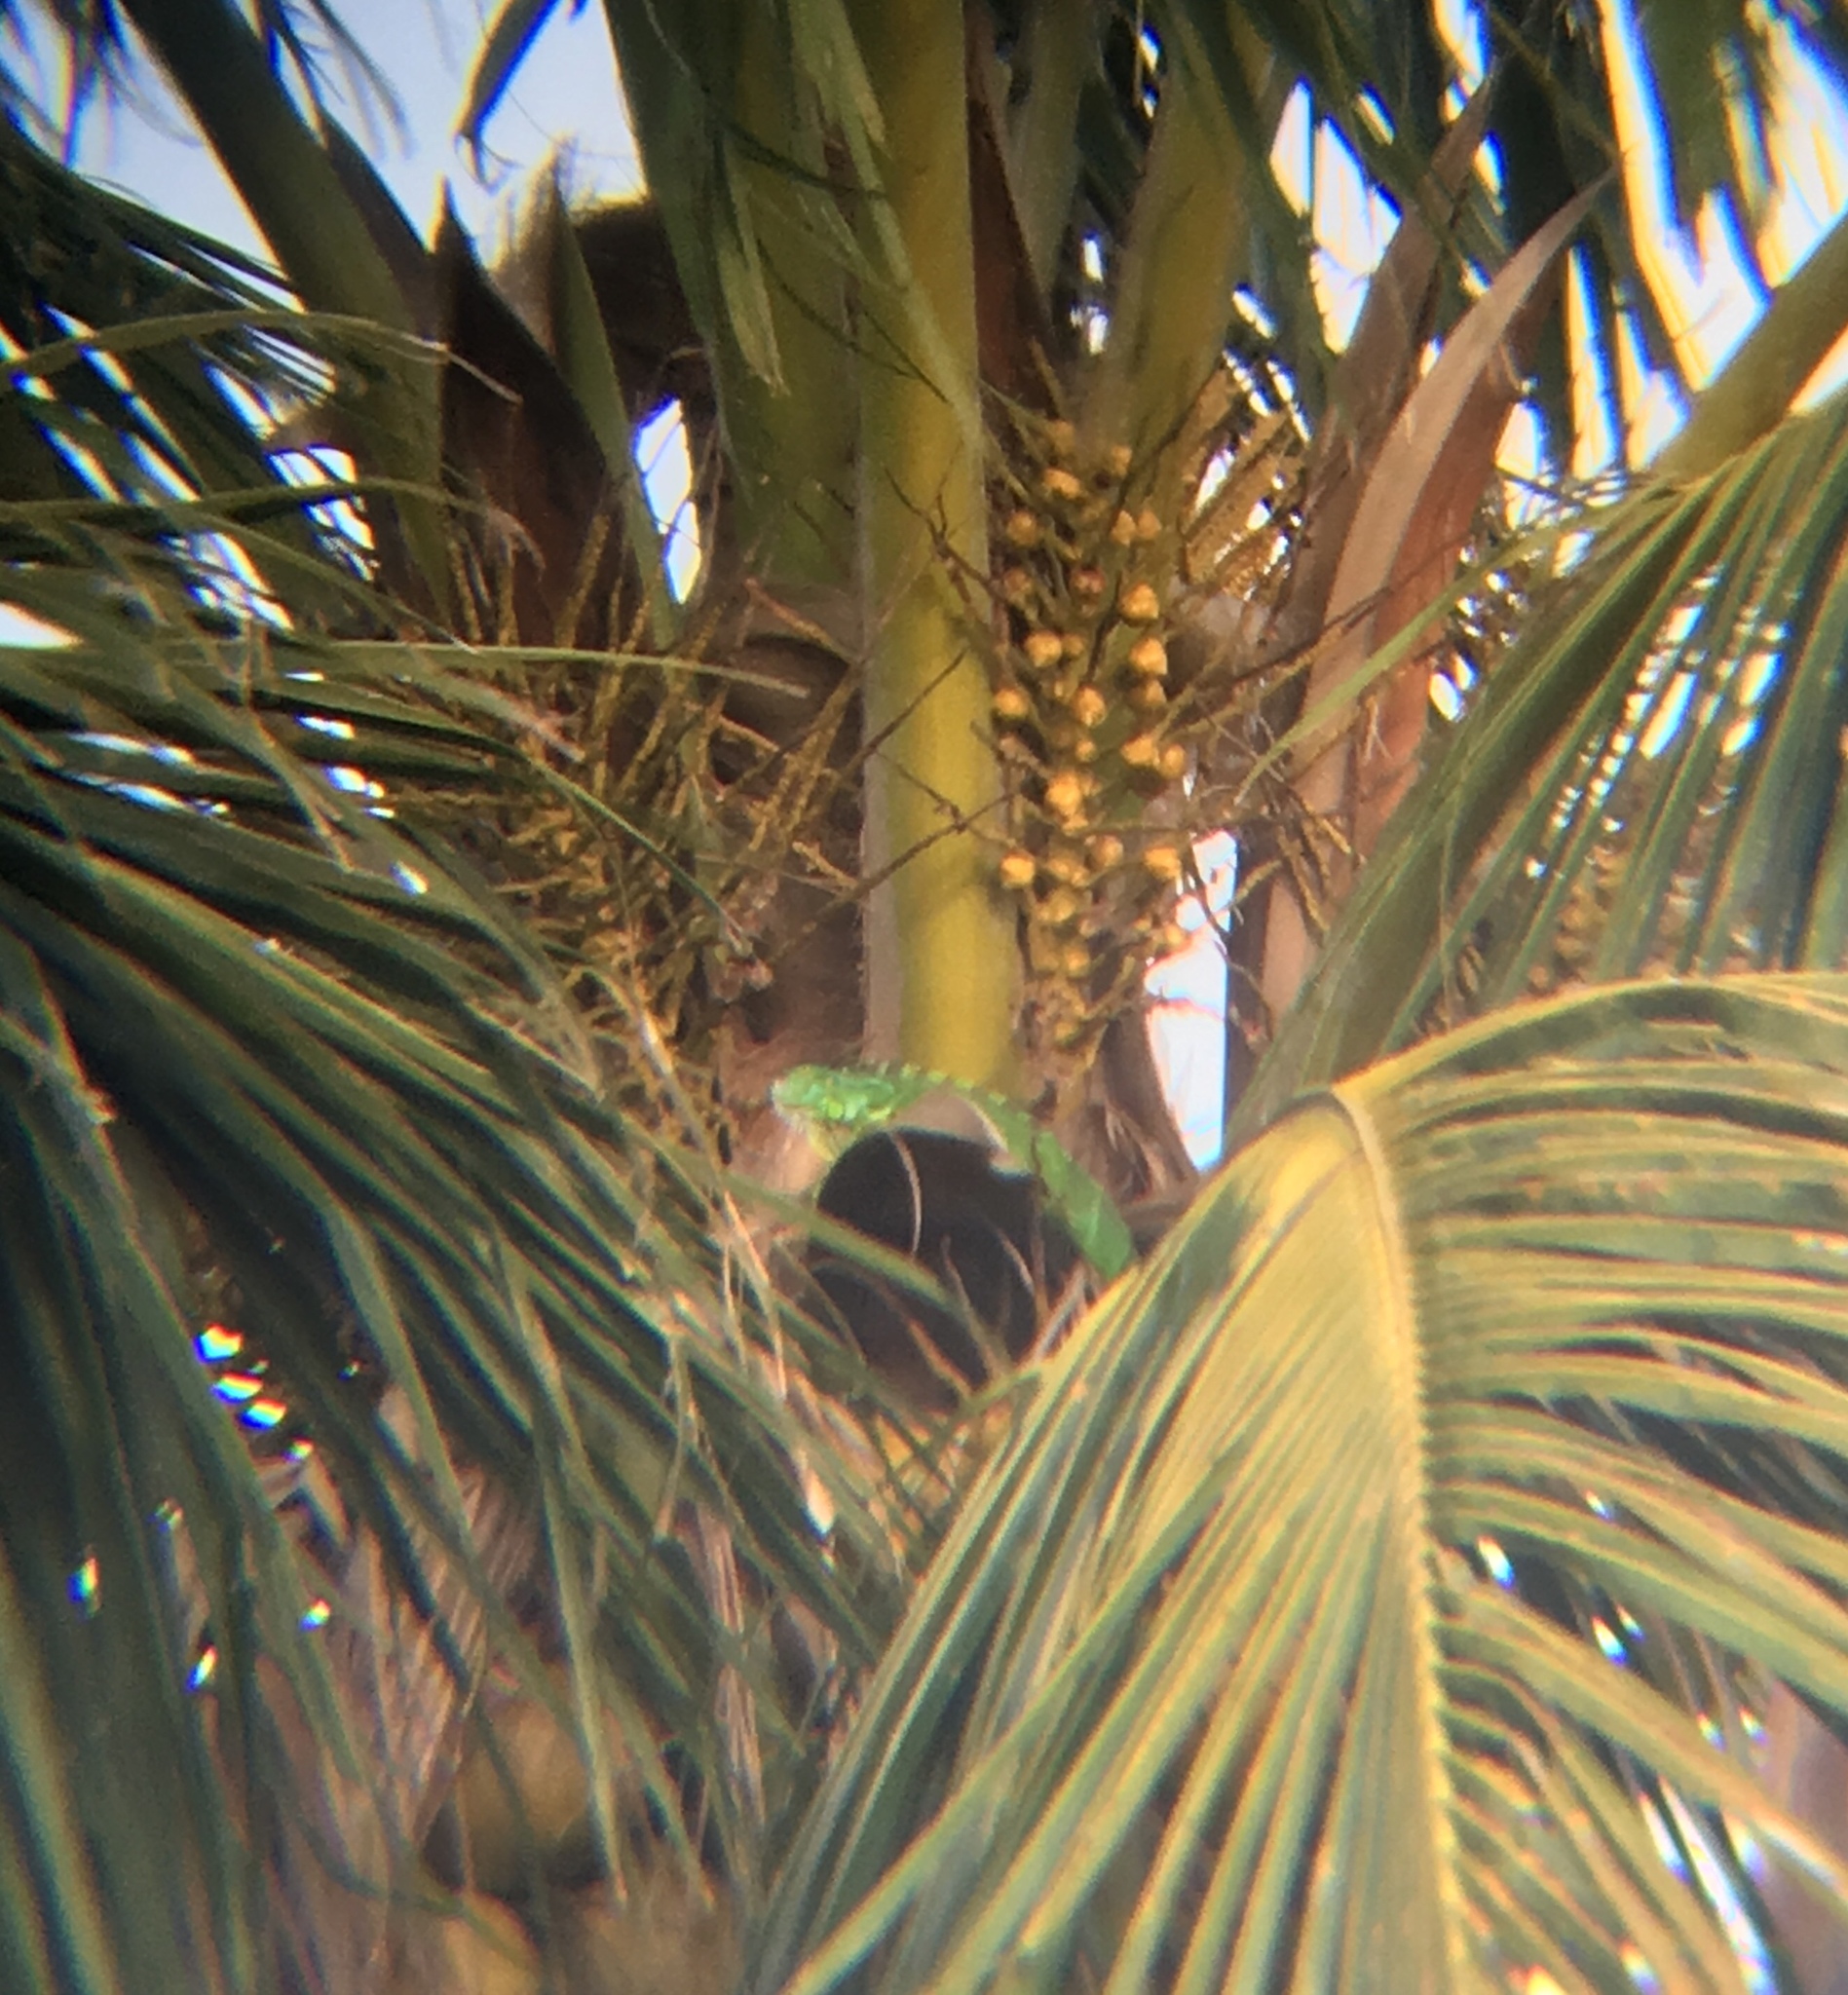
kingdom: Animalia
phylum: Chordata
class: Squamata
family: Iguanidae
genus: Iguana
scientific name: Iguana iguana
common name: Green iguana
